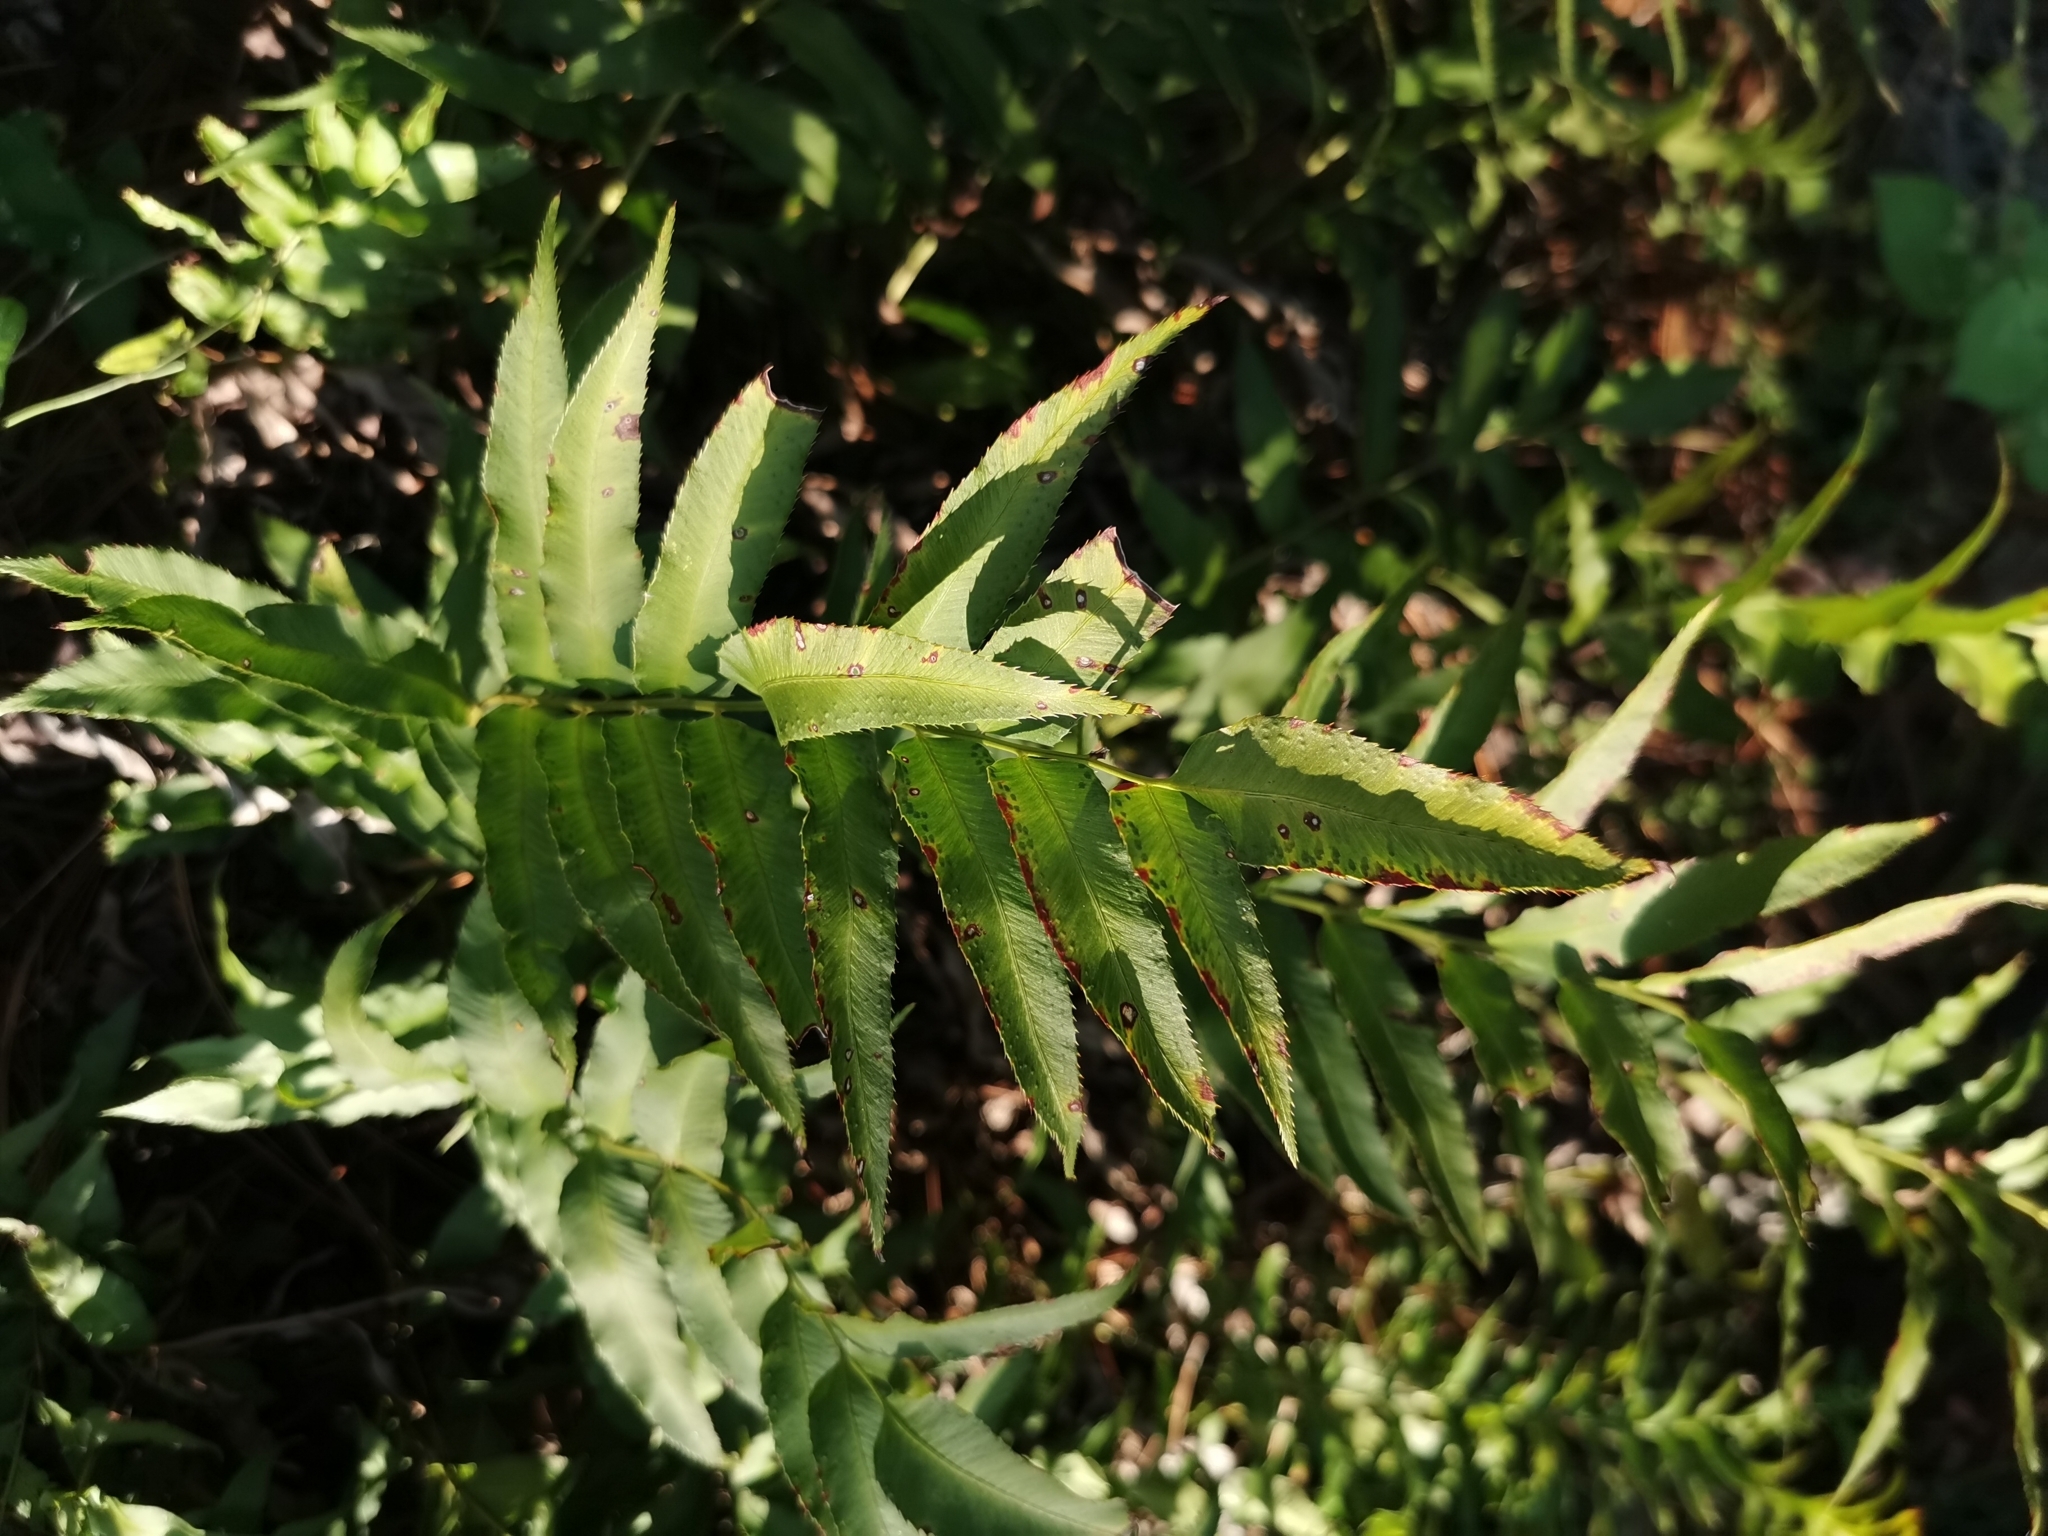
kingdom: Plantae
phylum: Tracheophyta
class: Polypodiopsida
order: Polypodiales
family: Dryopteridaceae
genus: Phanerophlebia
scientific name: Phanerophlebia umbonata
